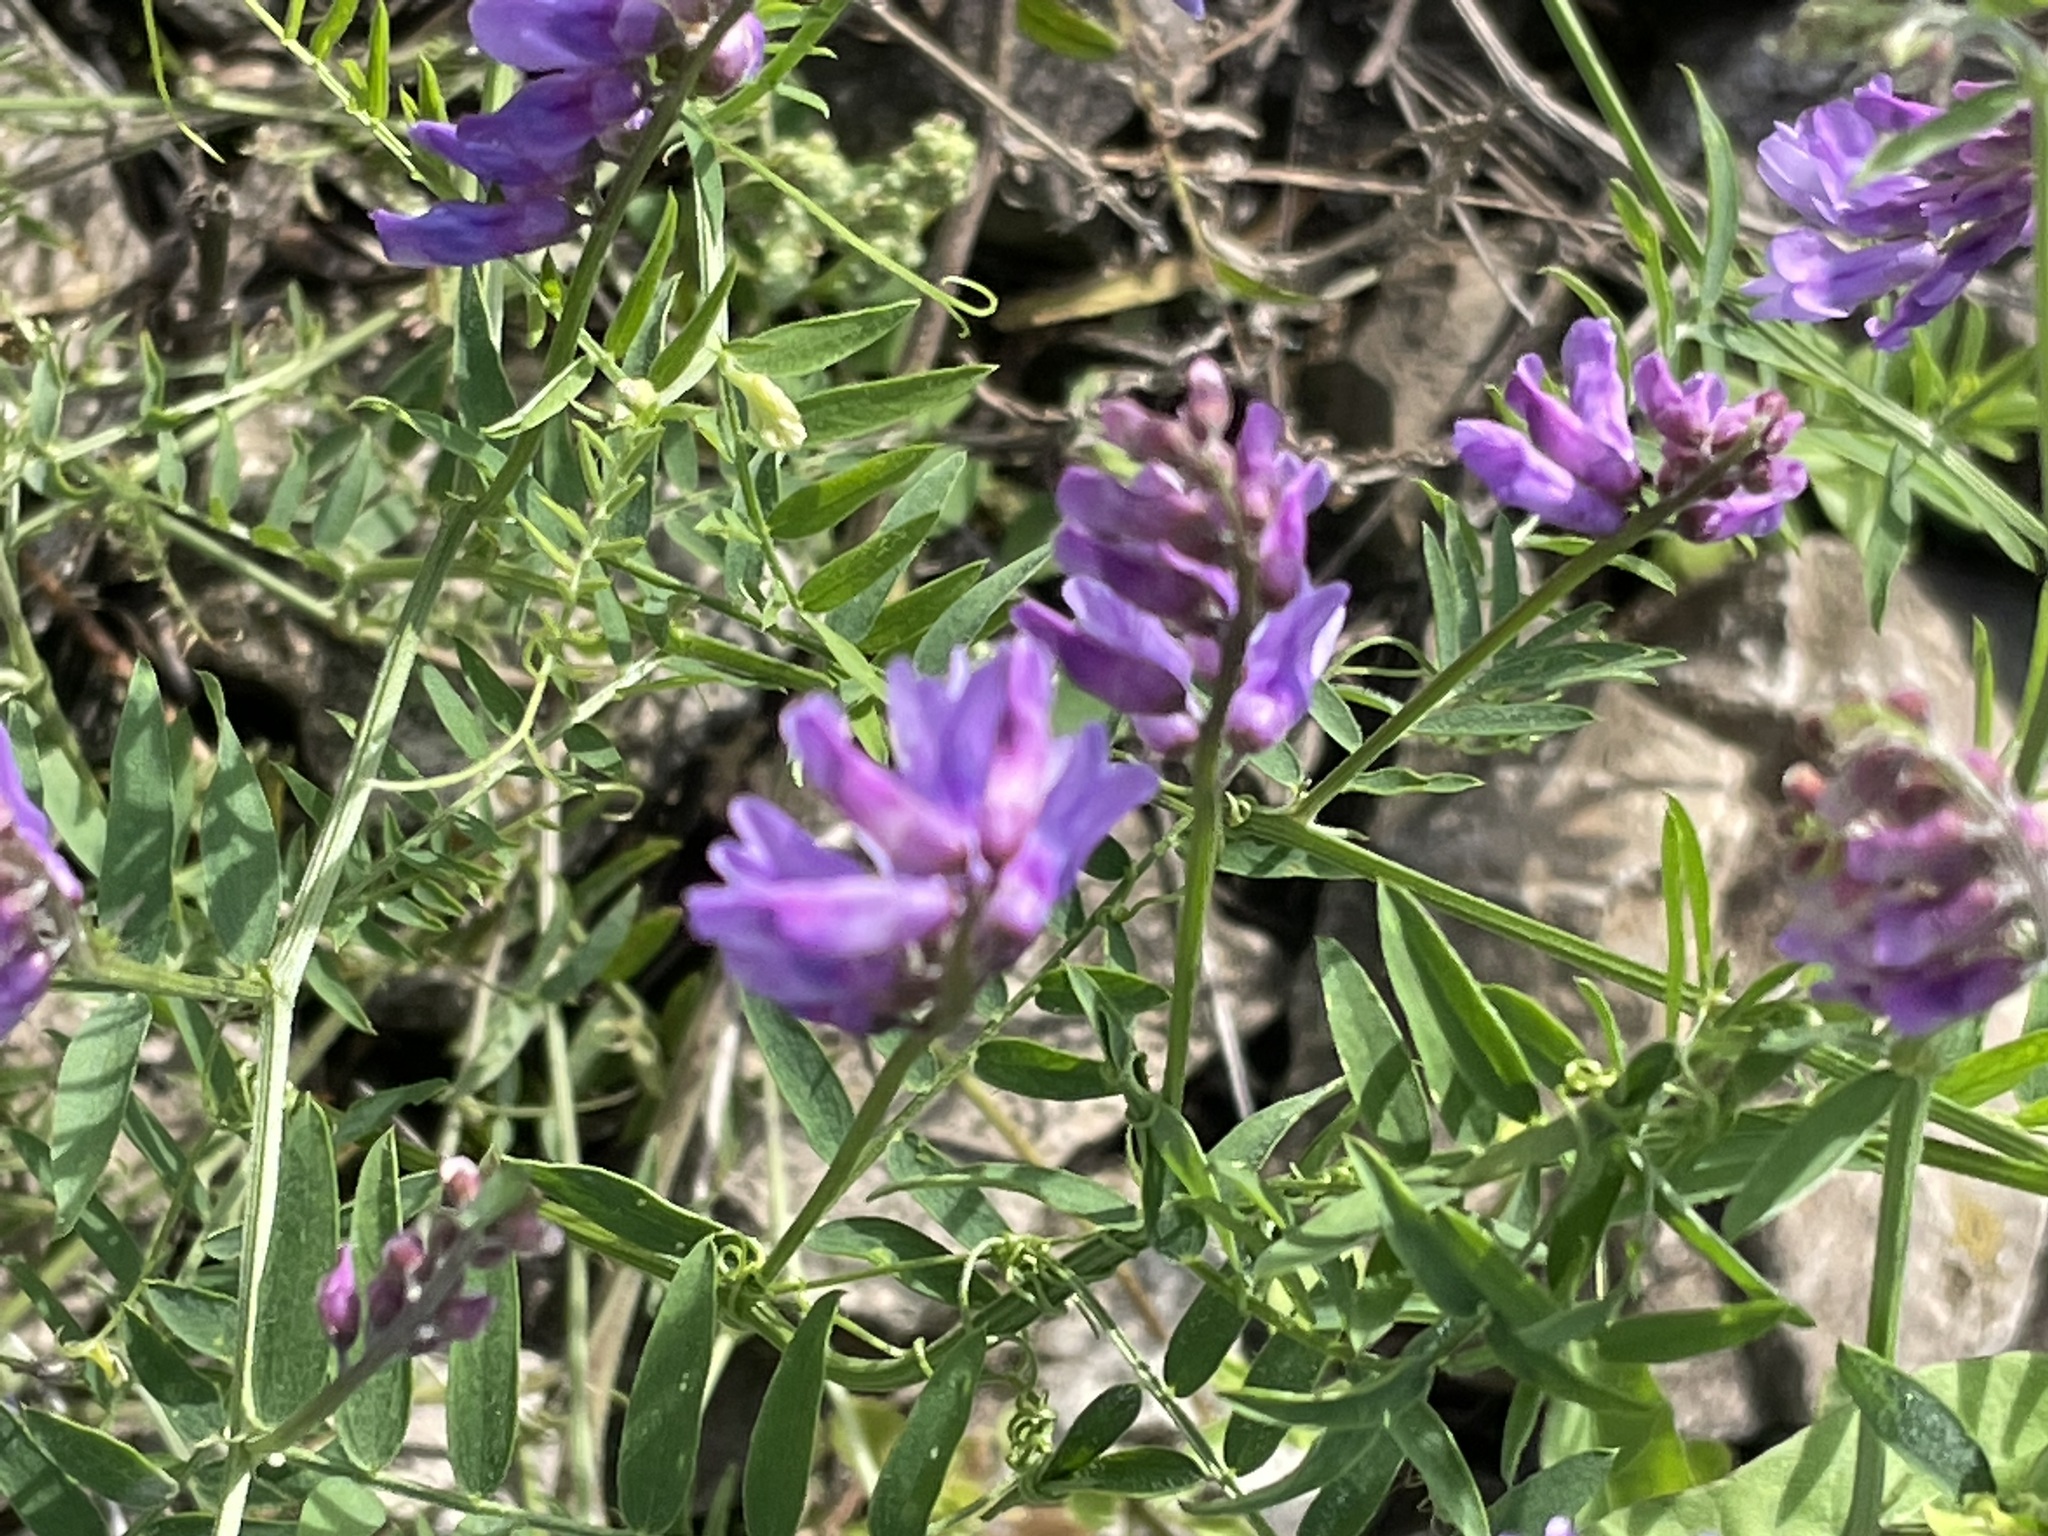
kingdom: Plantae
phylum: Tracheophyta
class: Magnoliopsida
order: Fabales
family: Fabaceae
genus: Vicia
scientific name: Vicia cracca
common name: Bird vetch
